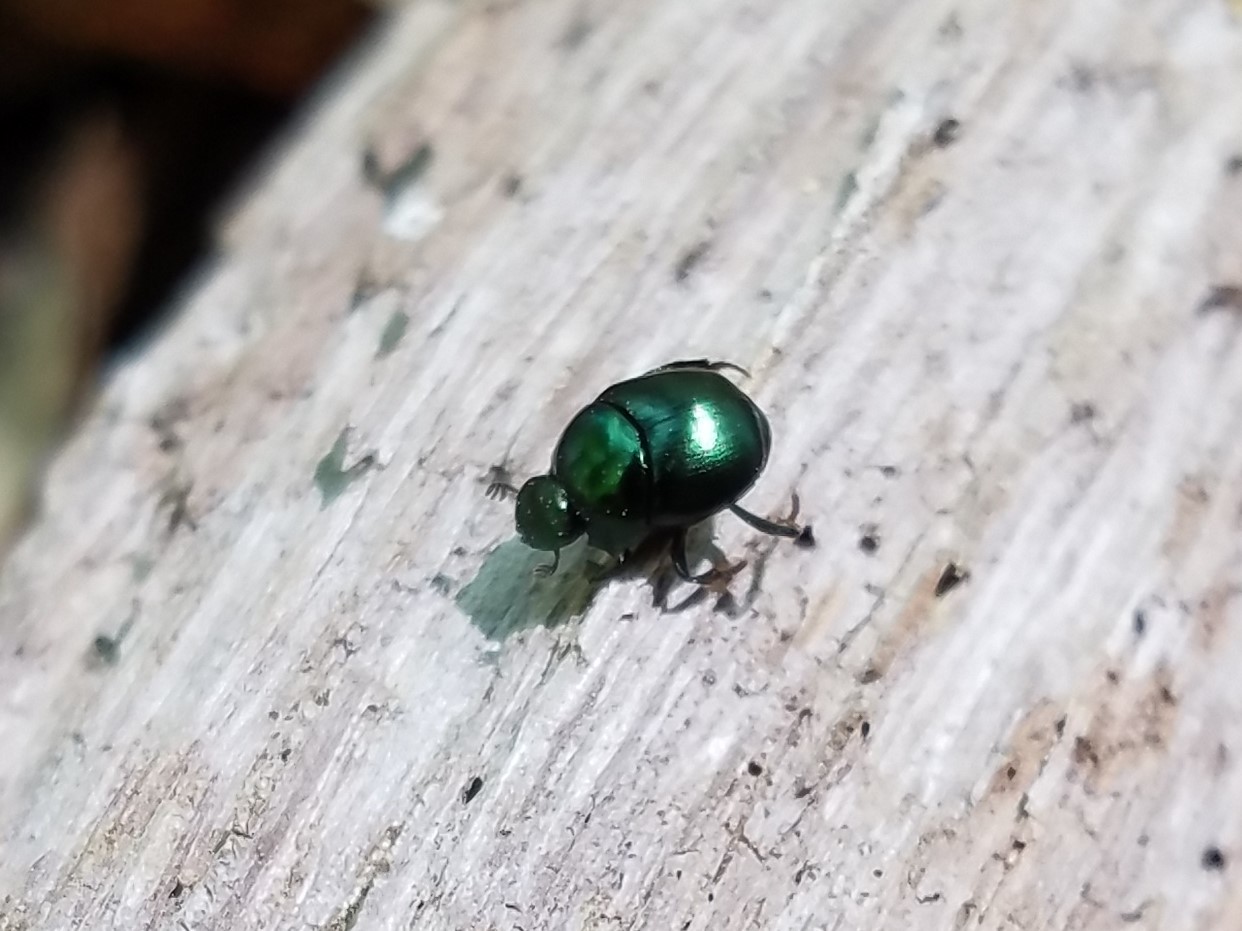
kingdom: Animalia
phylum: Arthropoda
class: Insecta
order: Coleoptera
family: Scarabaeidae
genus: Canthon
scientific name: Canthon viridis
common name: Tumblebug
